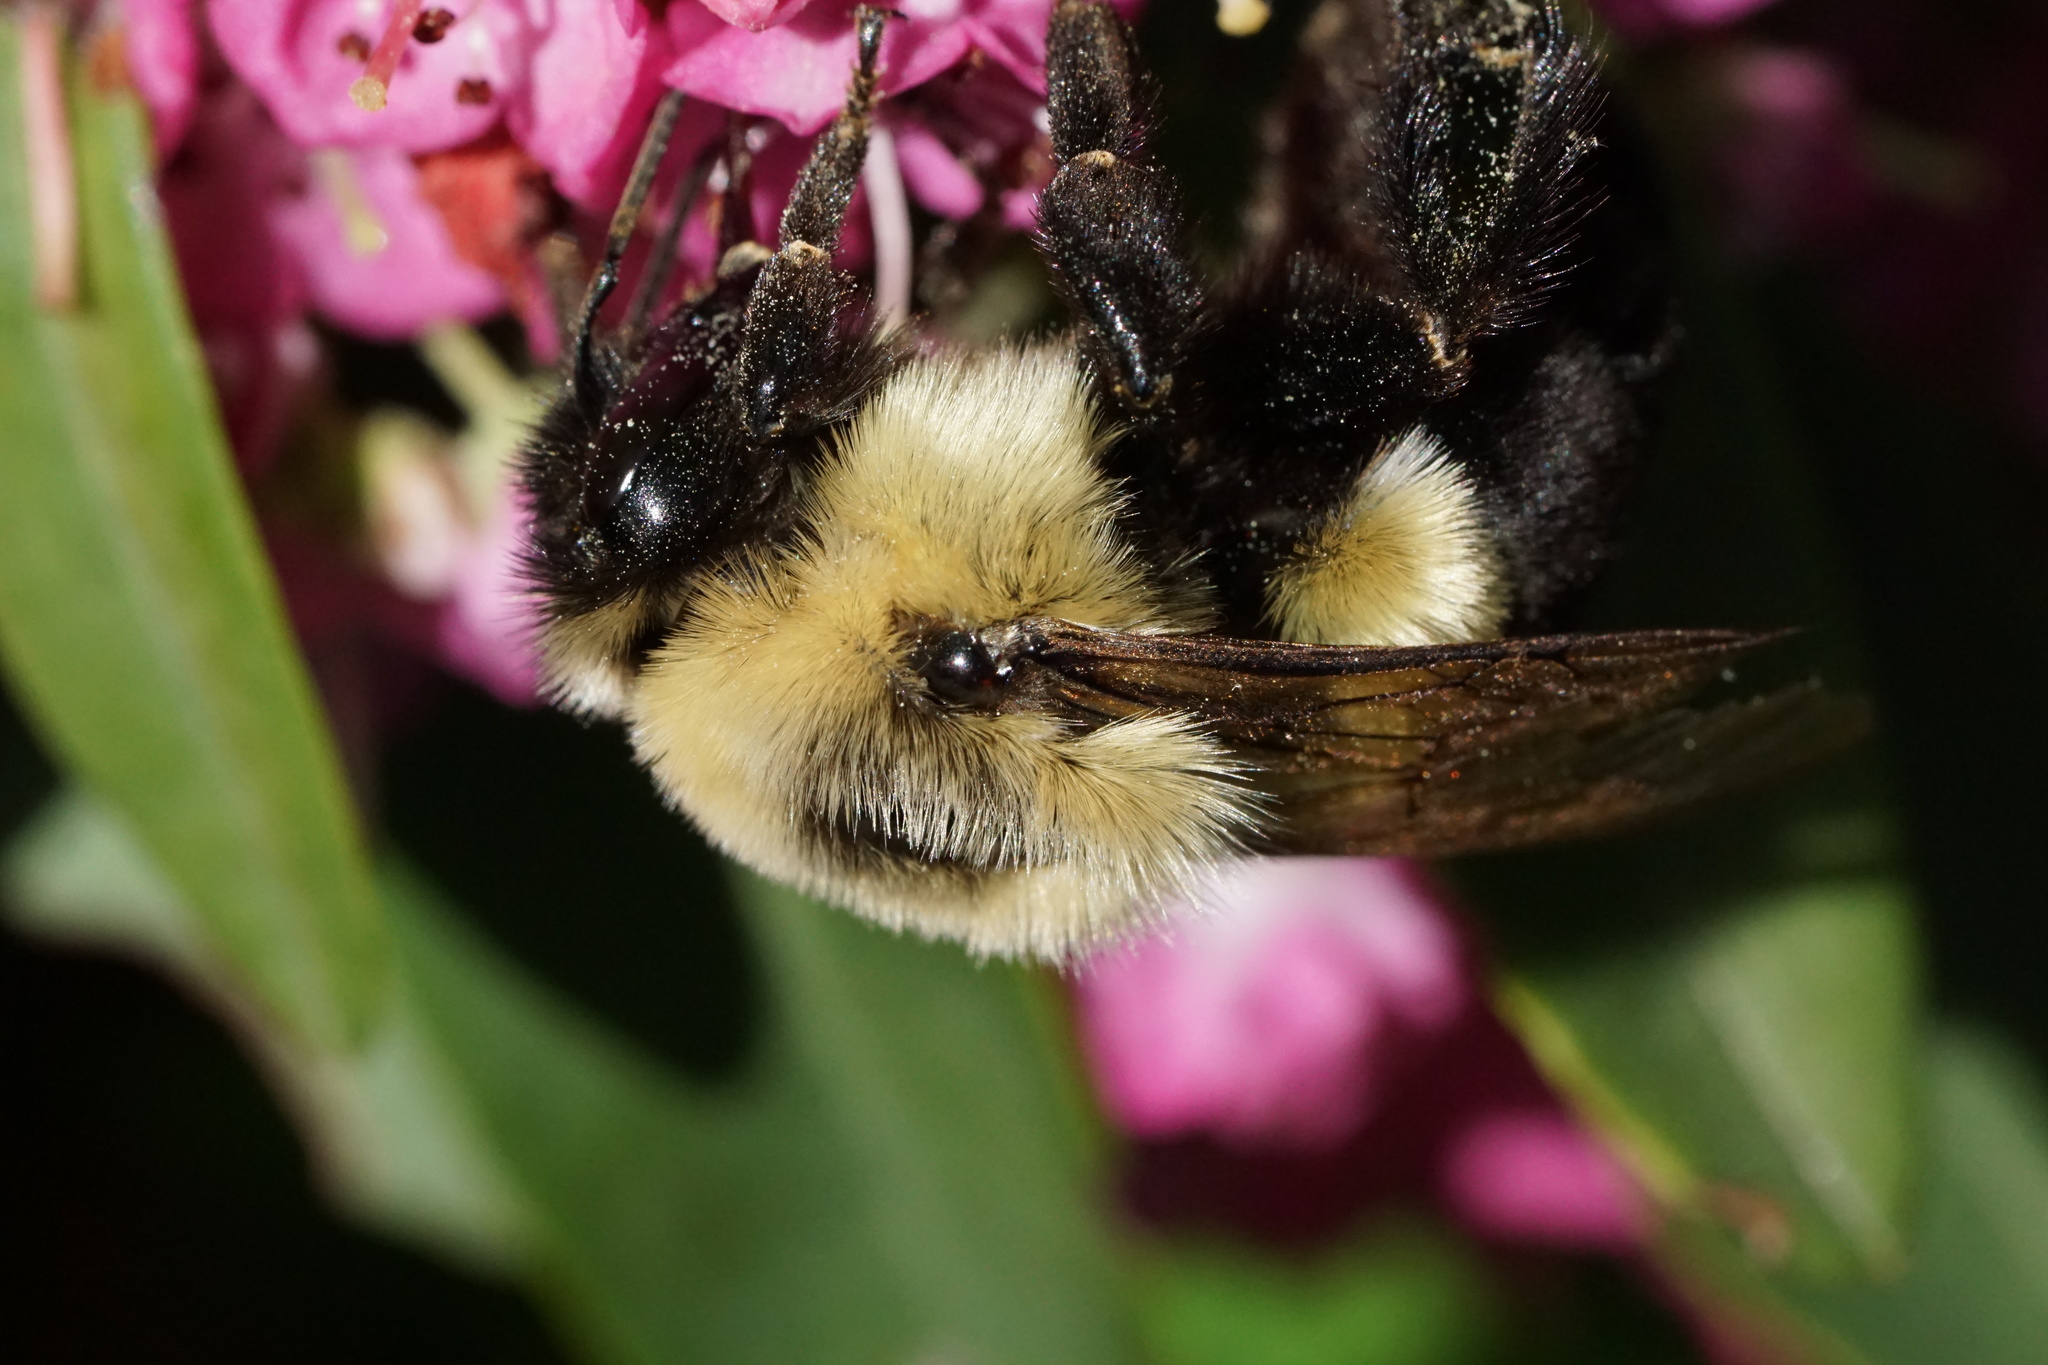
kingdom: Animalia
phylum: Arthropoda
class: Insecta
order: Hymenoptera
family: Apidae
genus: Bombus
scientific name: Bombus impatiens
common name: Common eastern bumble bee
